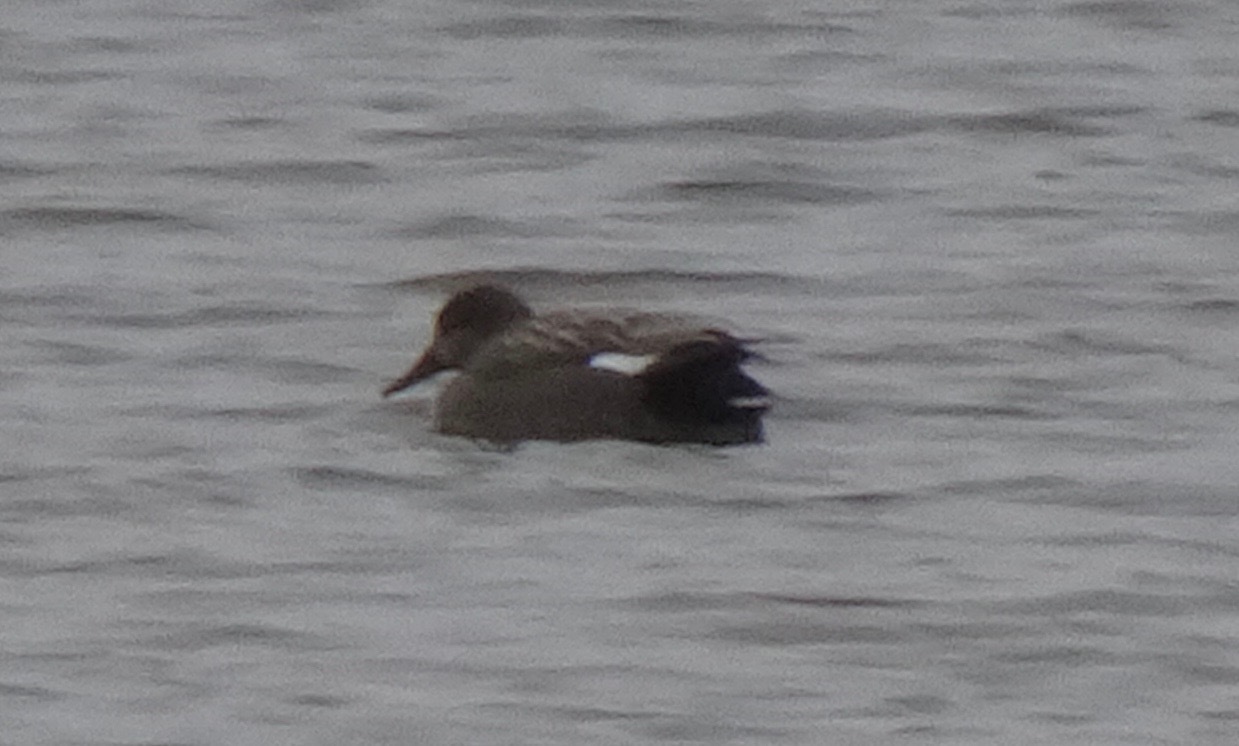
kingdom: Animalia
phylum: Chordata
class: Aves
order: Anseriformes
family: Anatidae
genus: Mareca
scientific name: Mareca strepera
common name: Gadwall
